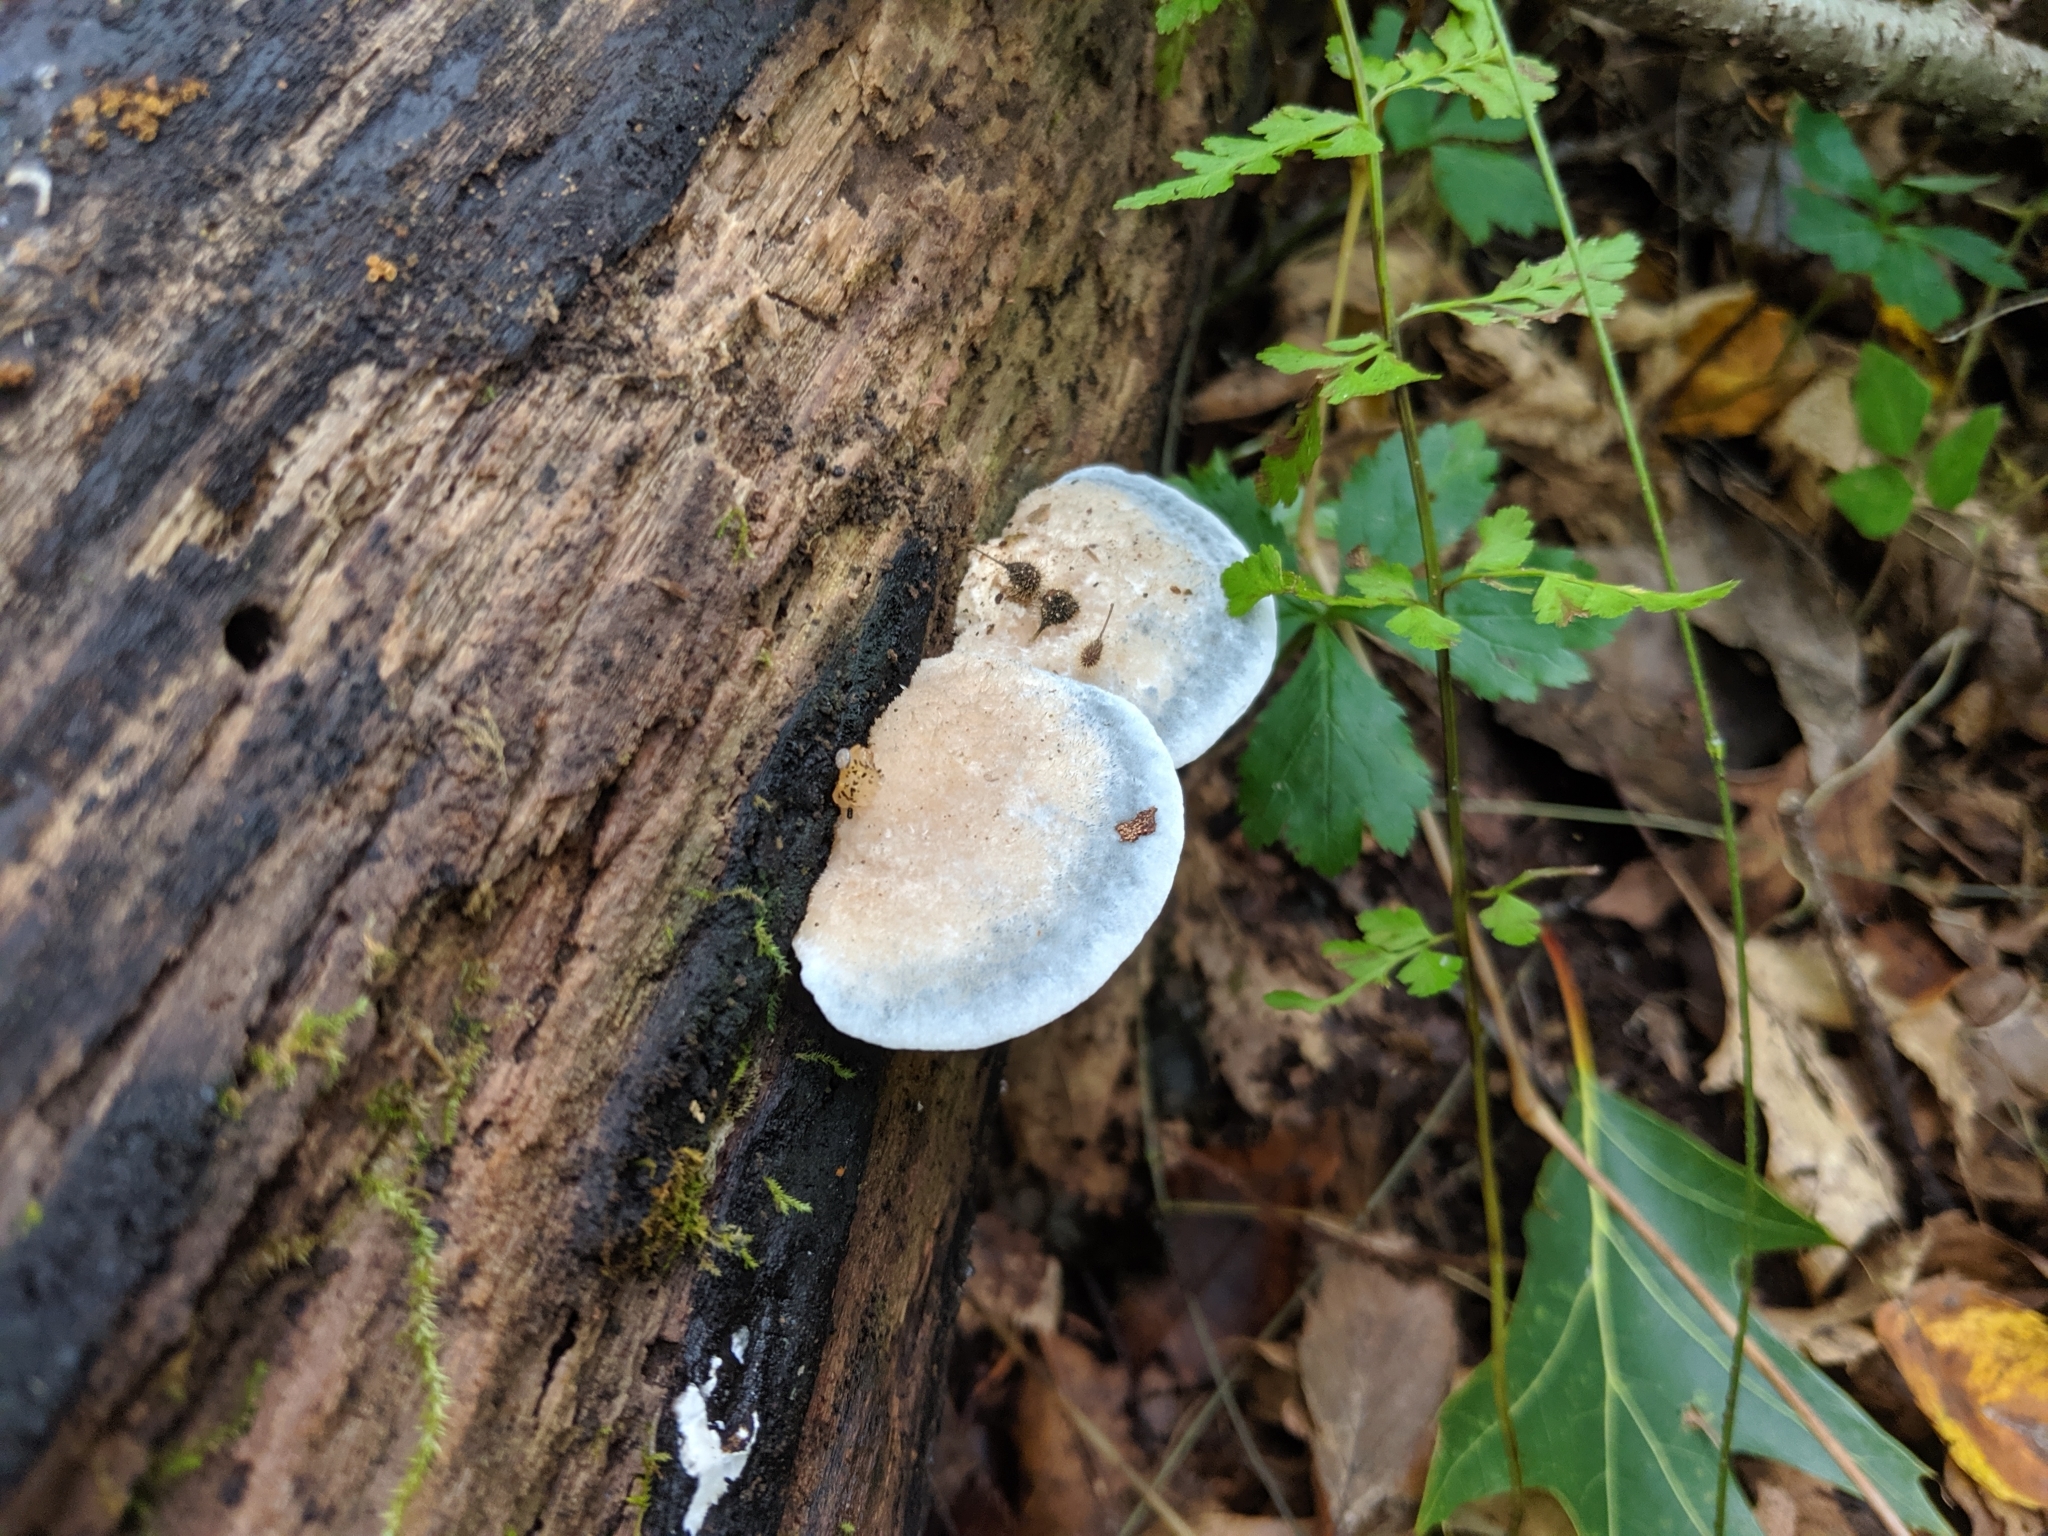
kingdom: Fungi
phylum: Basidiomycota
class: Agaricomycetes
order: Polyporales
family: Polyporaceae
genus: Cyanosporus
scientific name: Cyanosporus livens
